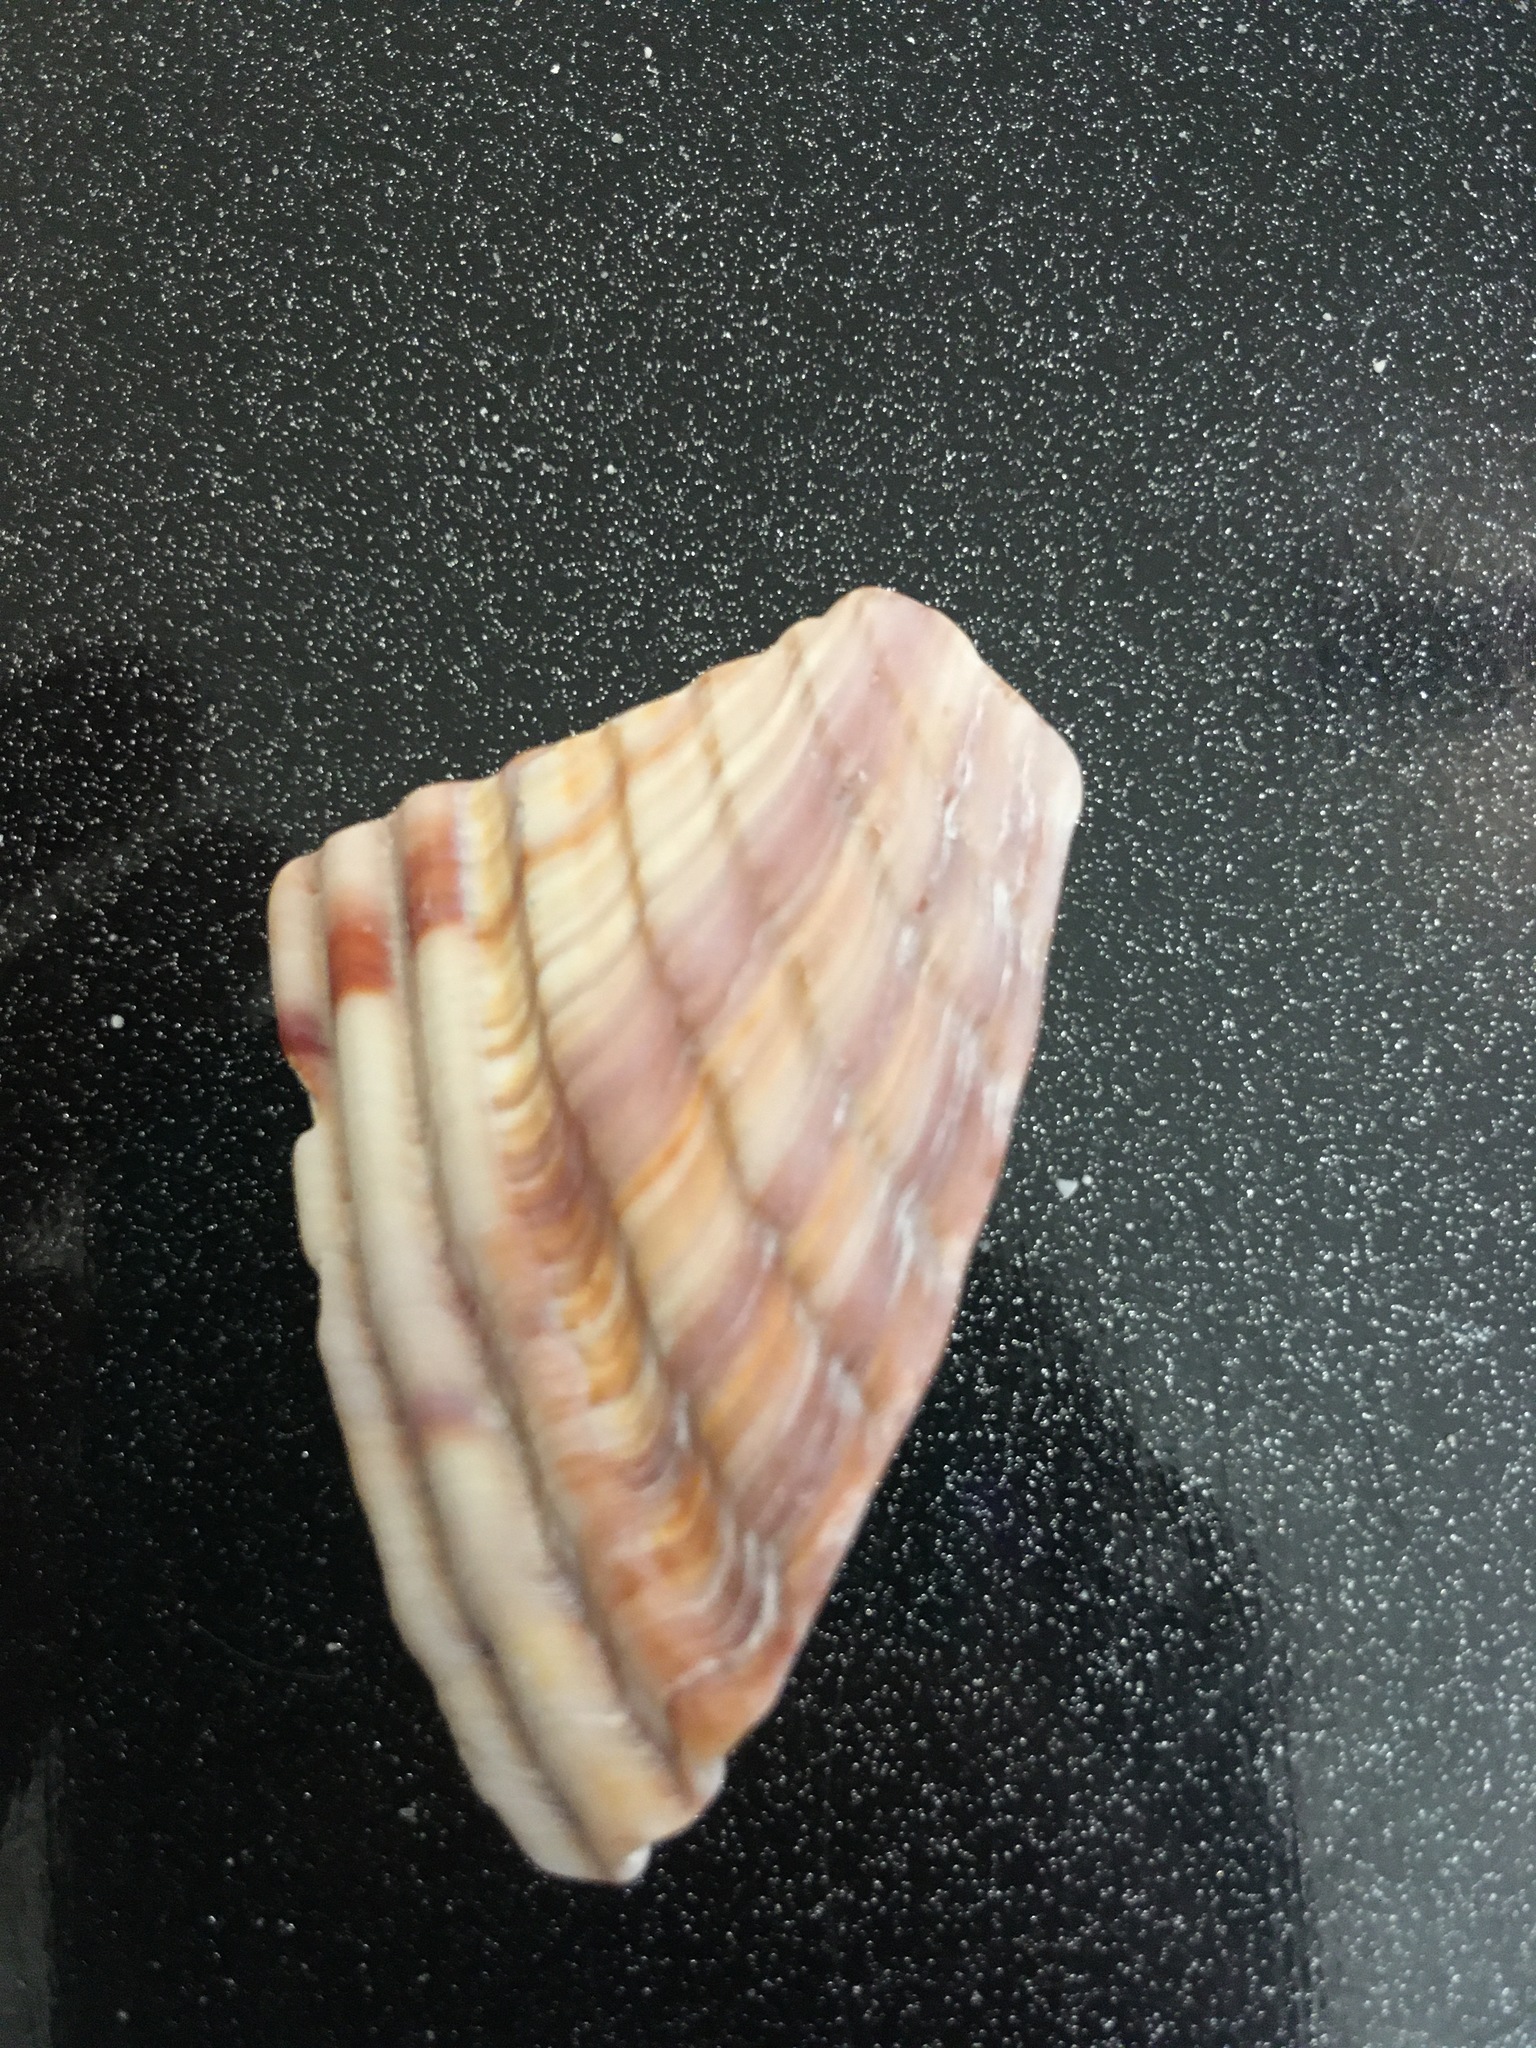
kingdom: Animalia
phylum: Mollusca
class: Bivalvia
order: Cardiida
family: Cardiidae
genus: Dinocardium
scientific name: Dinocardium robustum
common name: Atlantic giant cockle
